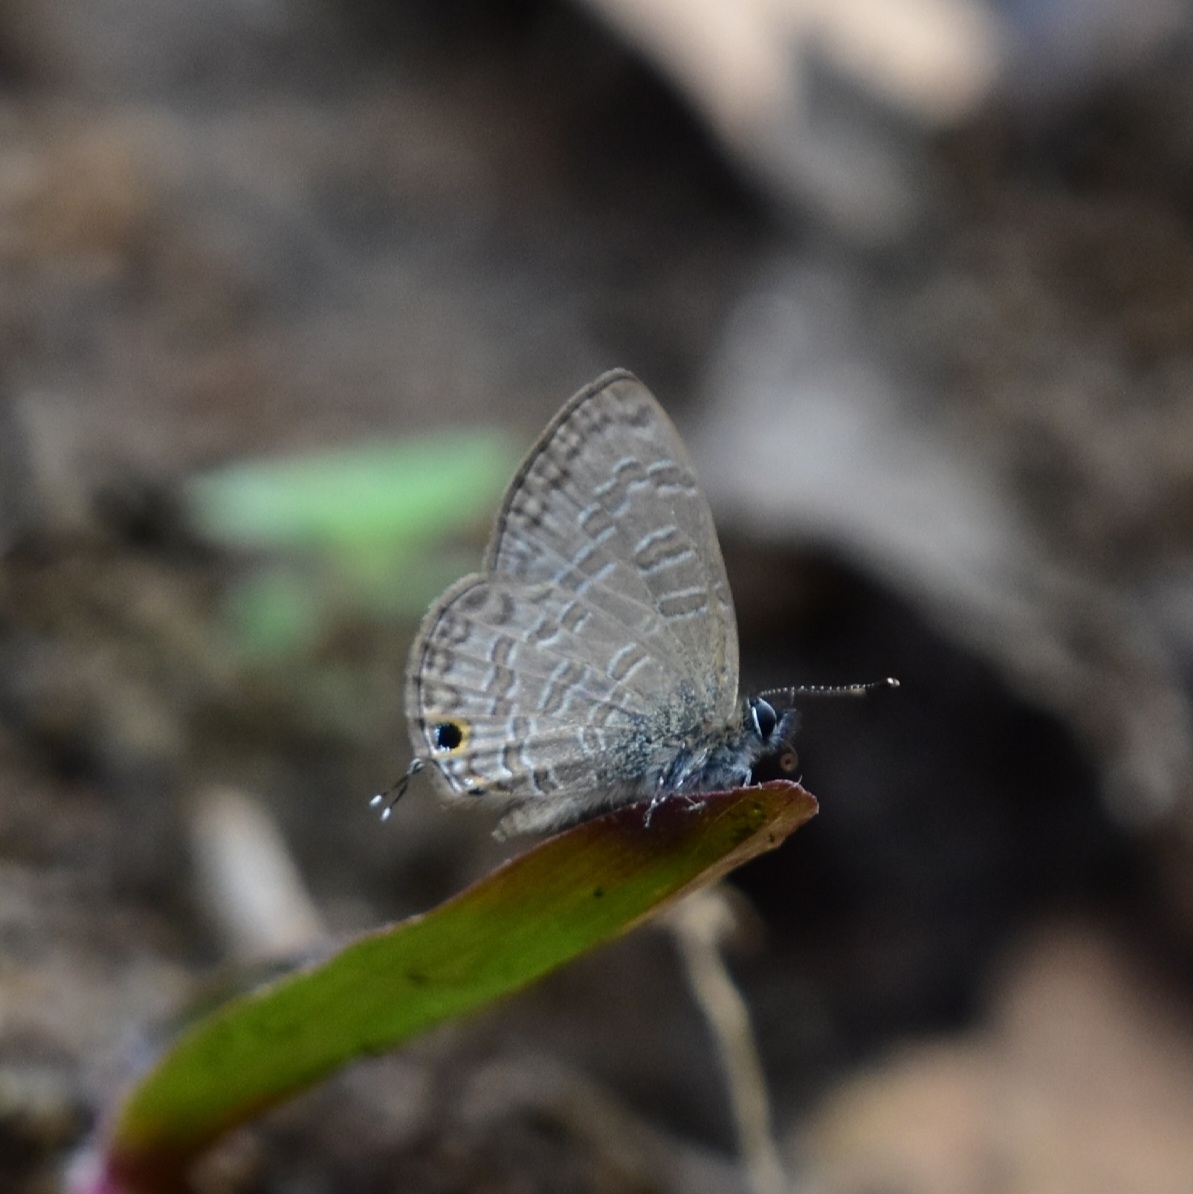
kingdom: Animalia
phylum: Arthropoda
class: Insecta
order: Lepidoptera
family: Lycaenidae
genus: Prosotas
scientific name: Prosotas nora
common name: Common line blue
